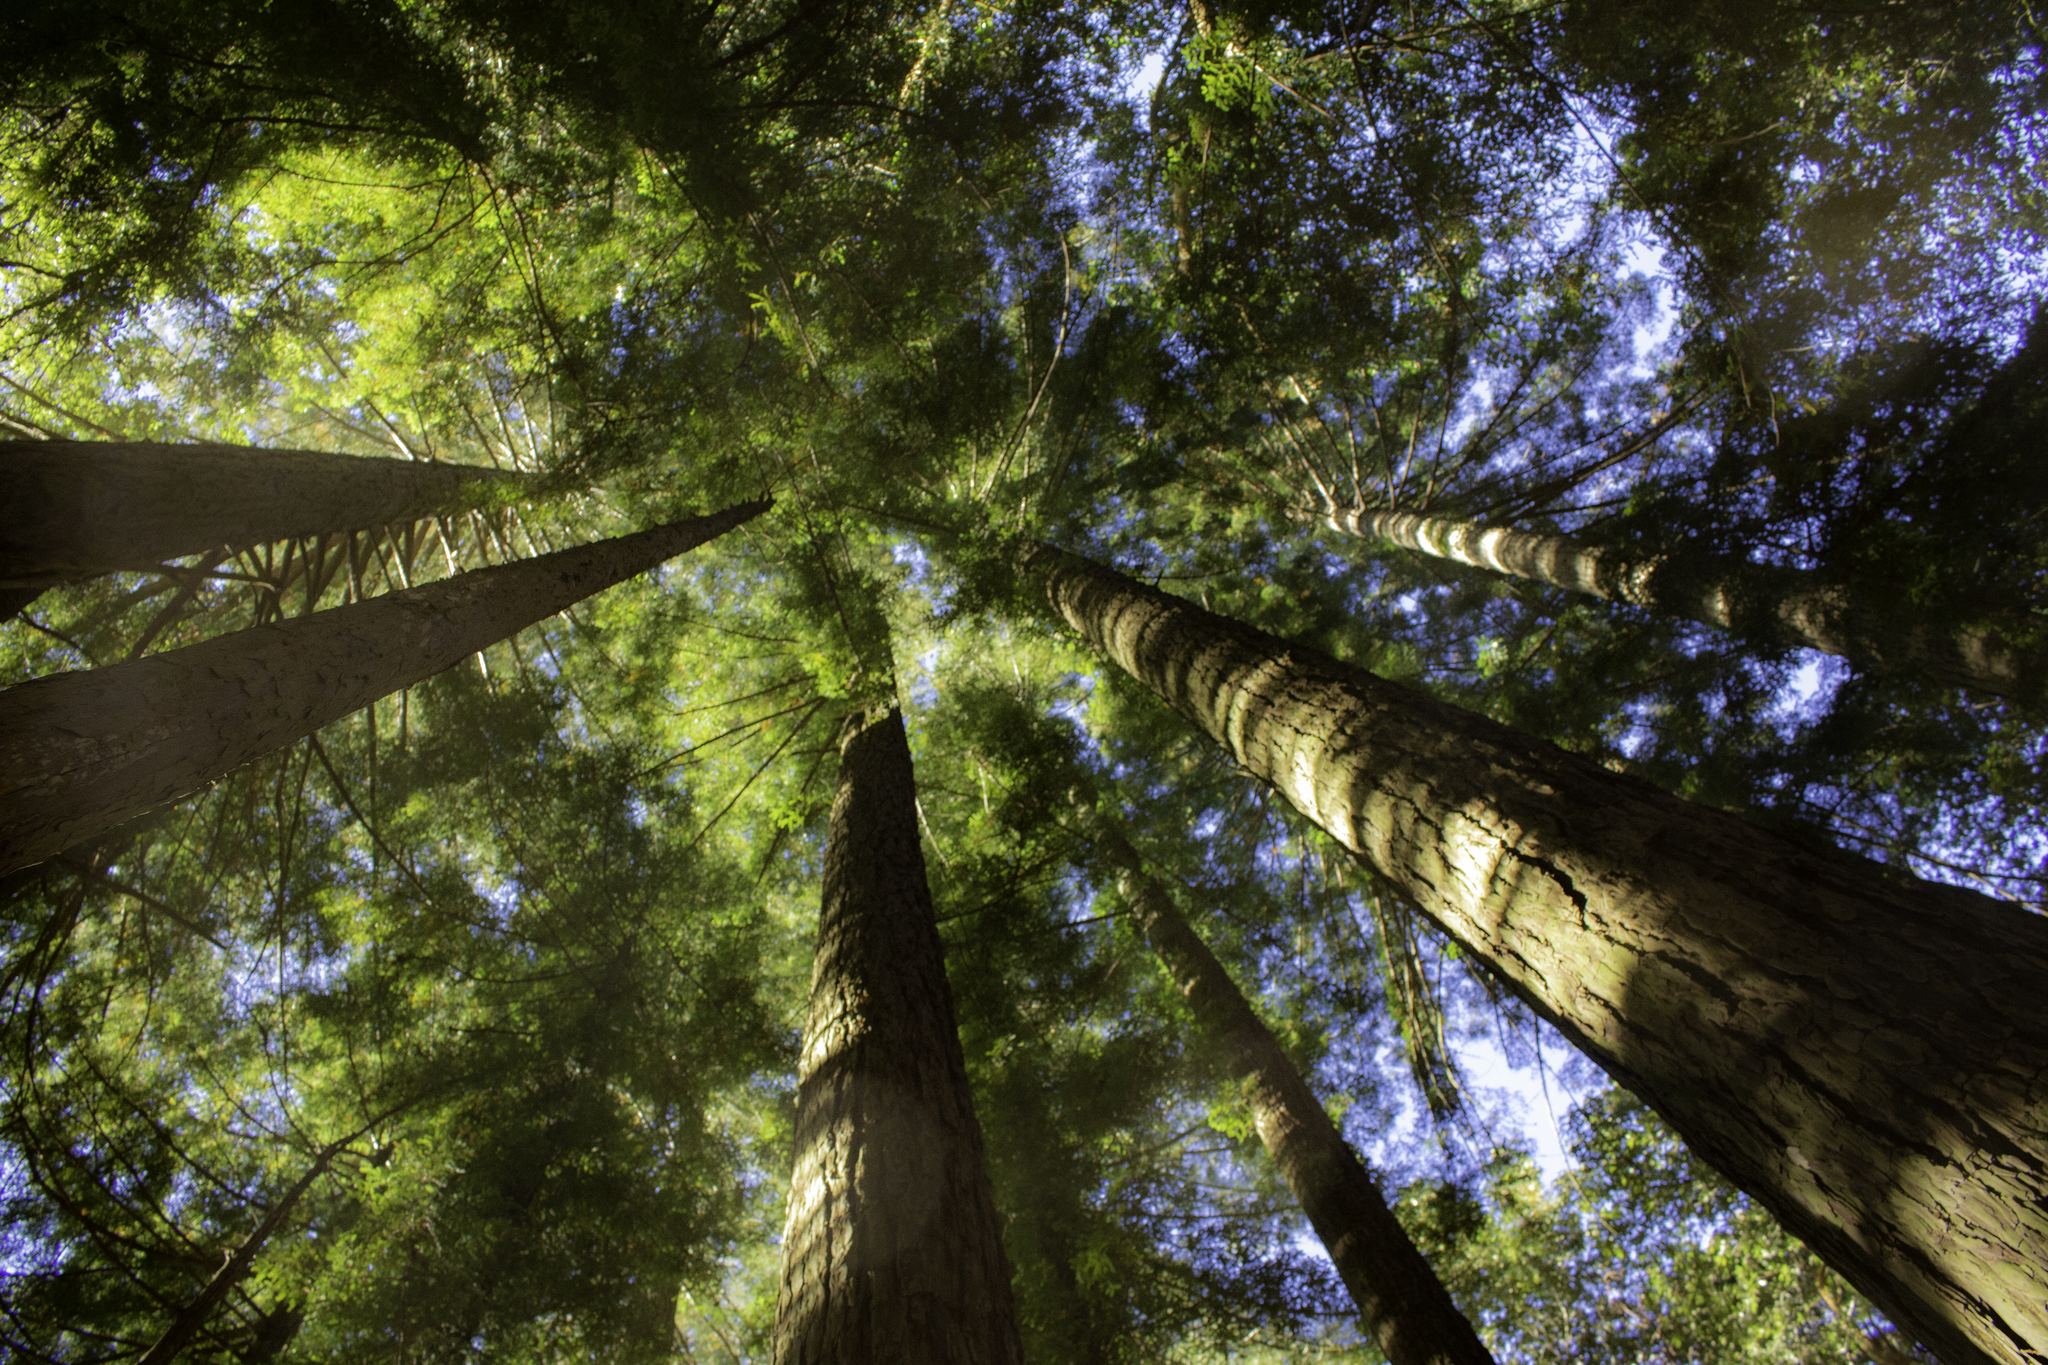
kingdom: Plantae
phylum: Tracheophyta
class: Pinopsida
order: Pinales
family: Cupressaceae
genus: Sequoia
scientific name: Sequoia sempervirens
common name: Coast redwood
